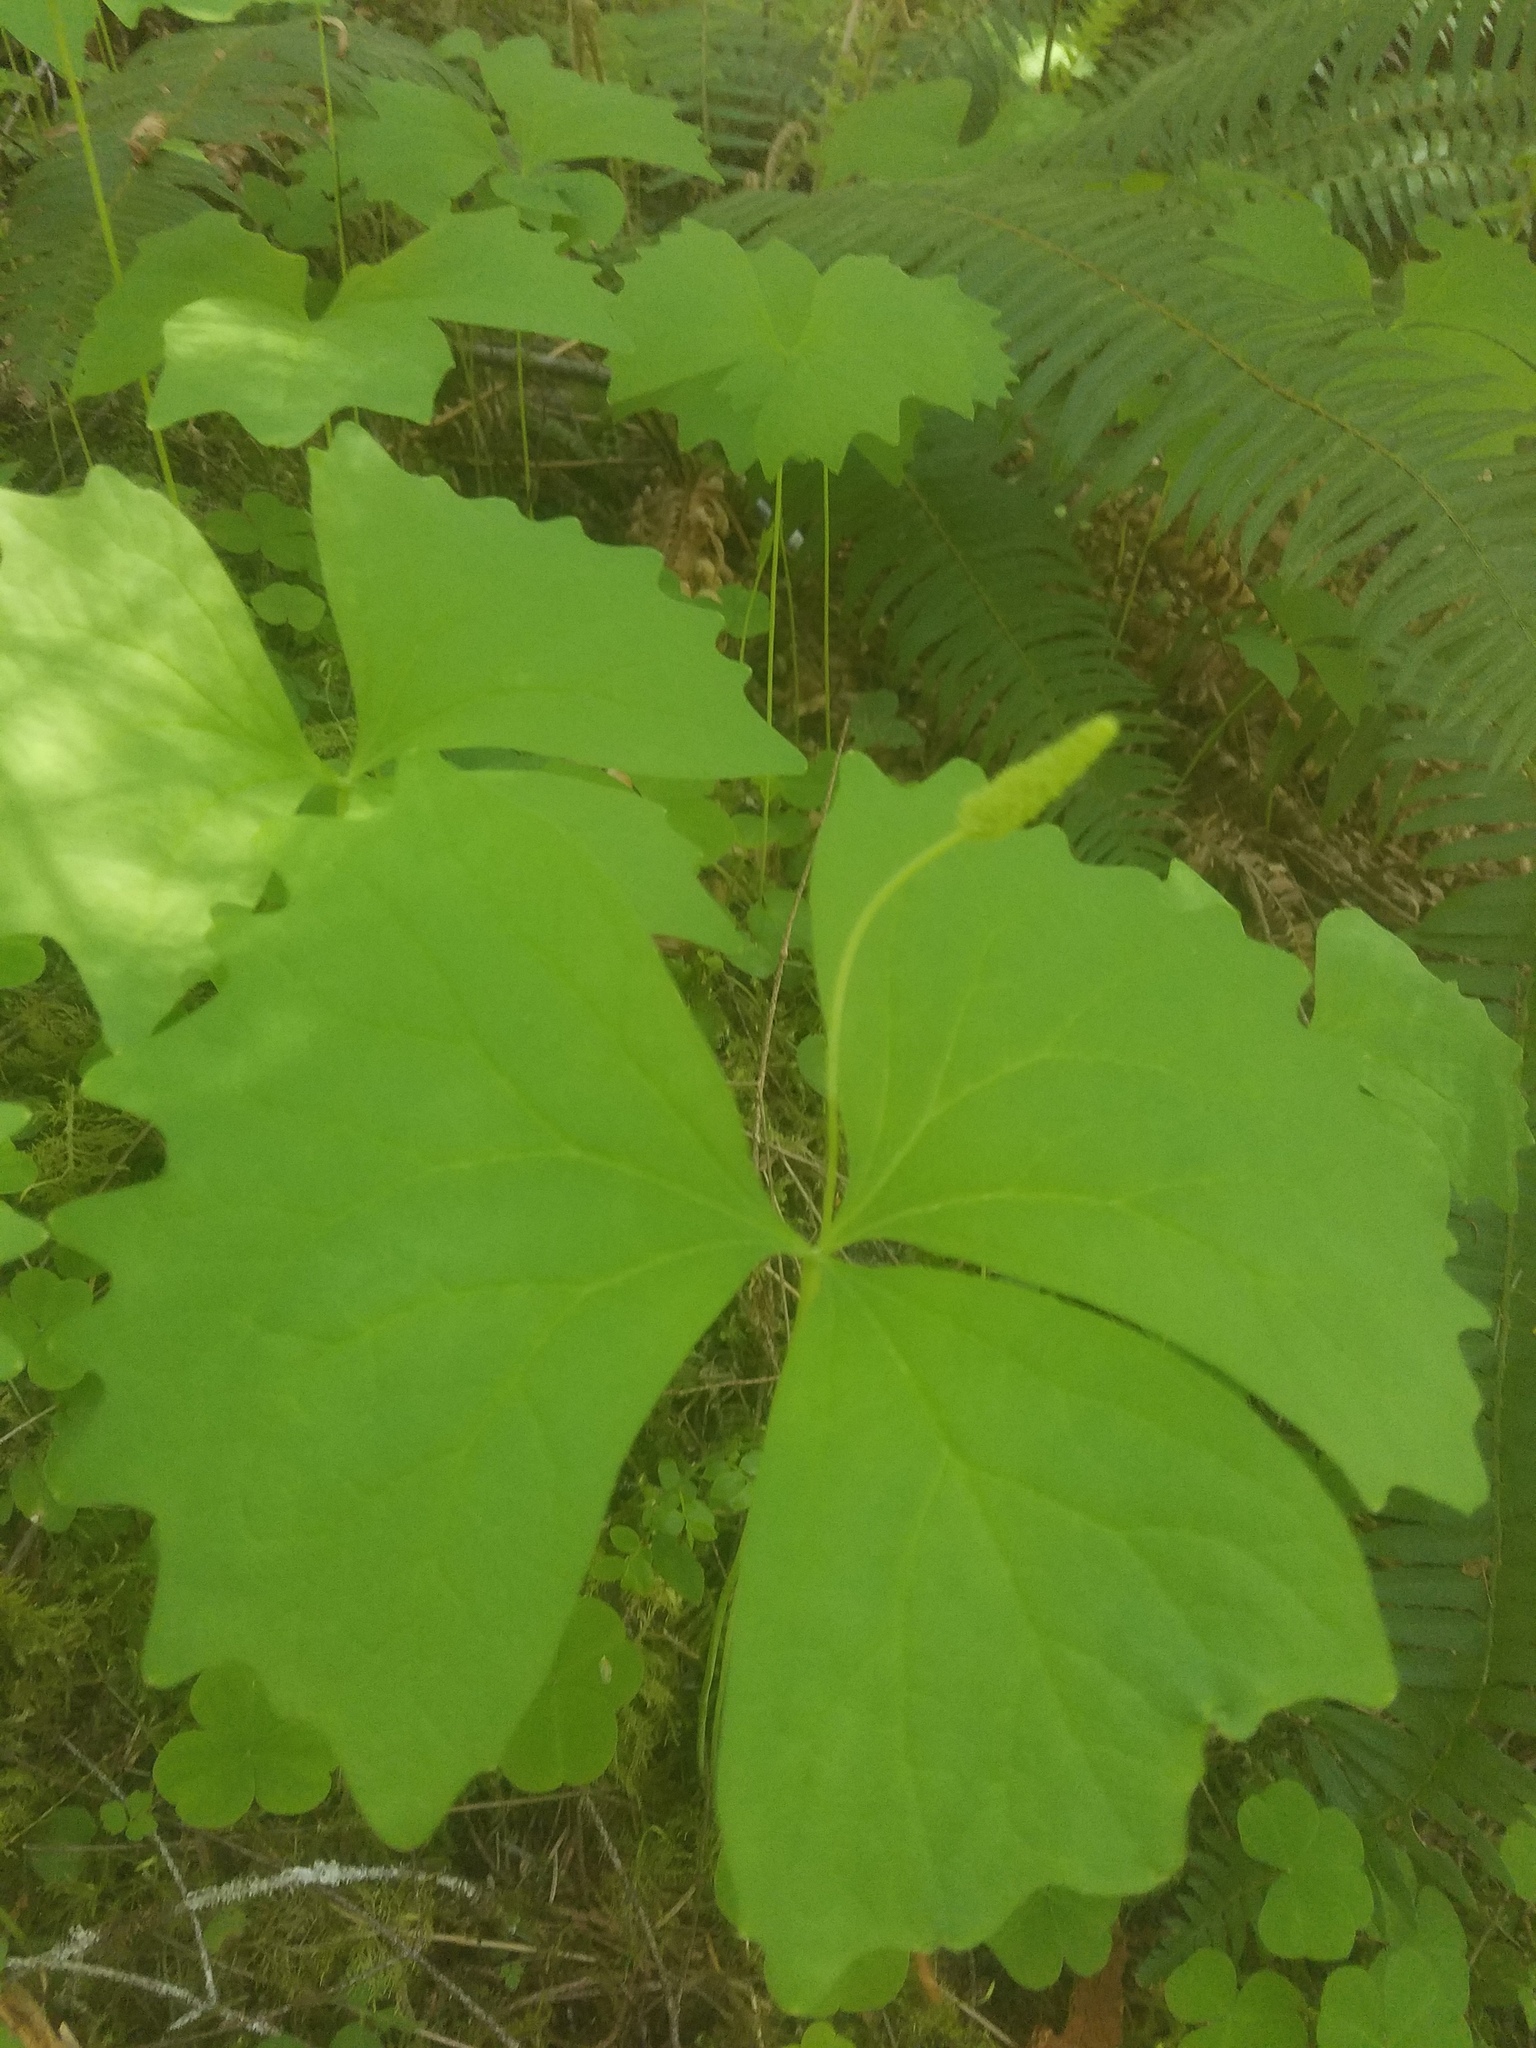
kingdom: Plantae
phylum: Tracheophyta
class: Magnoliopsida
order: Ranunculales
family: Berberidaceae
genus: Achlys
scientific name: Achlys triphylla
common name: Vanilla-leaf
